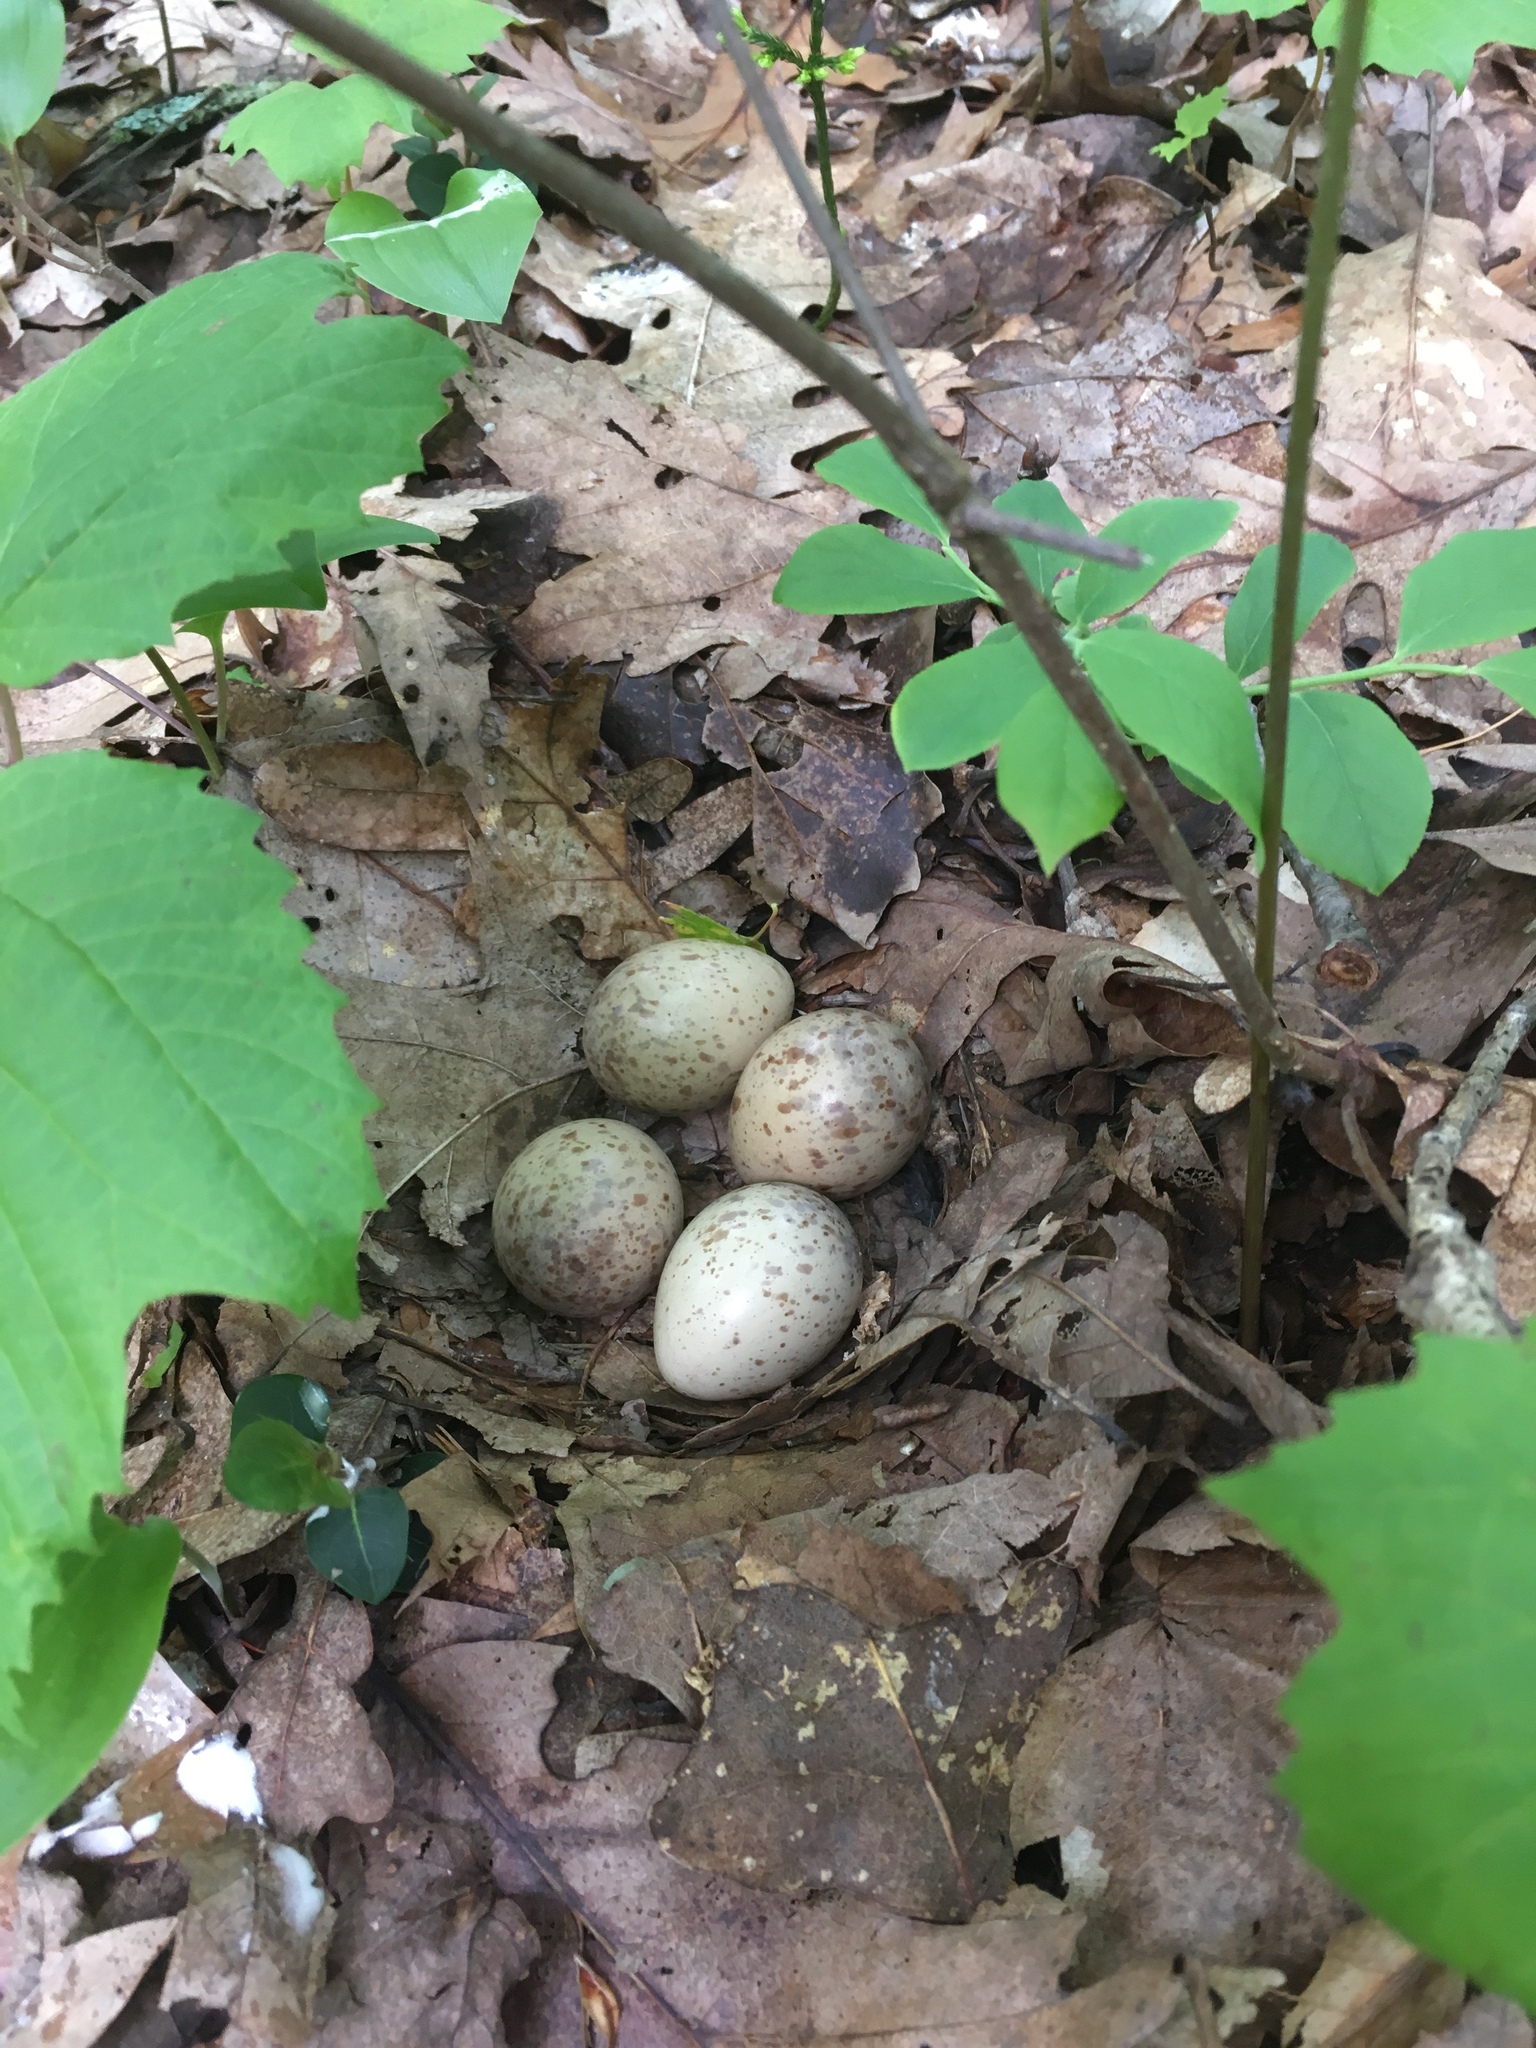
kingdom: Animalia
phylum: Chordata
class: Aves
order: Charadriiformes
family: Scolopacidae
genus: Scolopax
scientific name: Scolopax minor
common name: American woodcock
